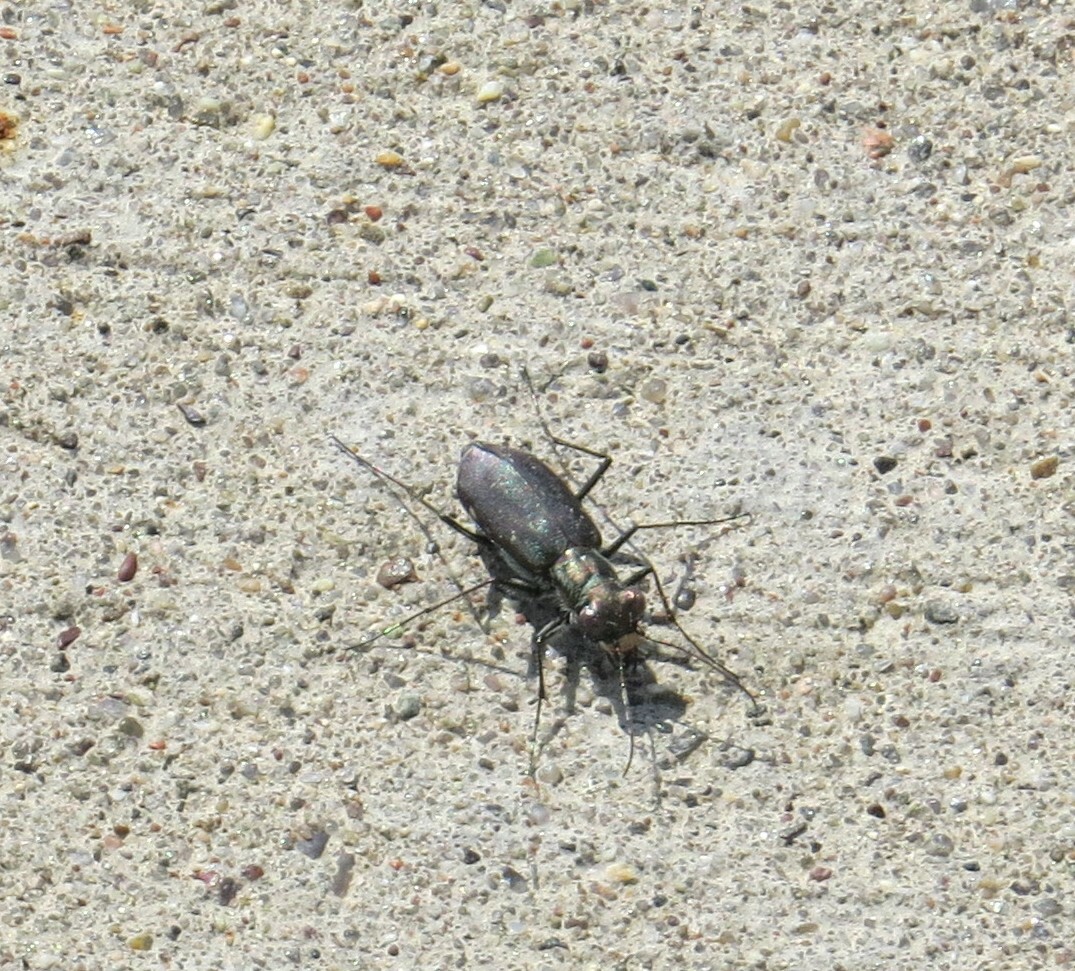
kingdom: Animalia
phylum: Arthropoda
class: Insecta
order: Coleoptera
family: Carabidae
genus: Cicindela
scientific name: Cicindela punctulata
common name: Punctured tiger beetle
